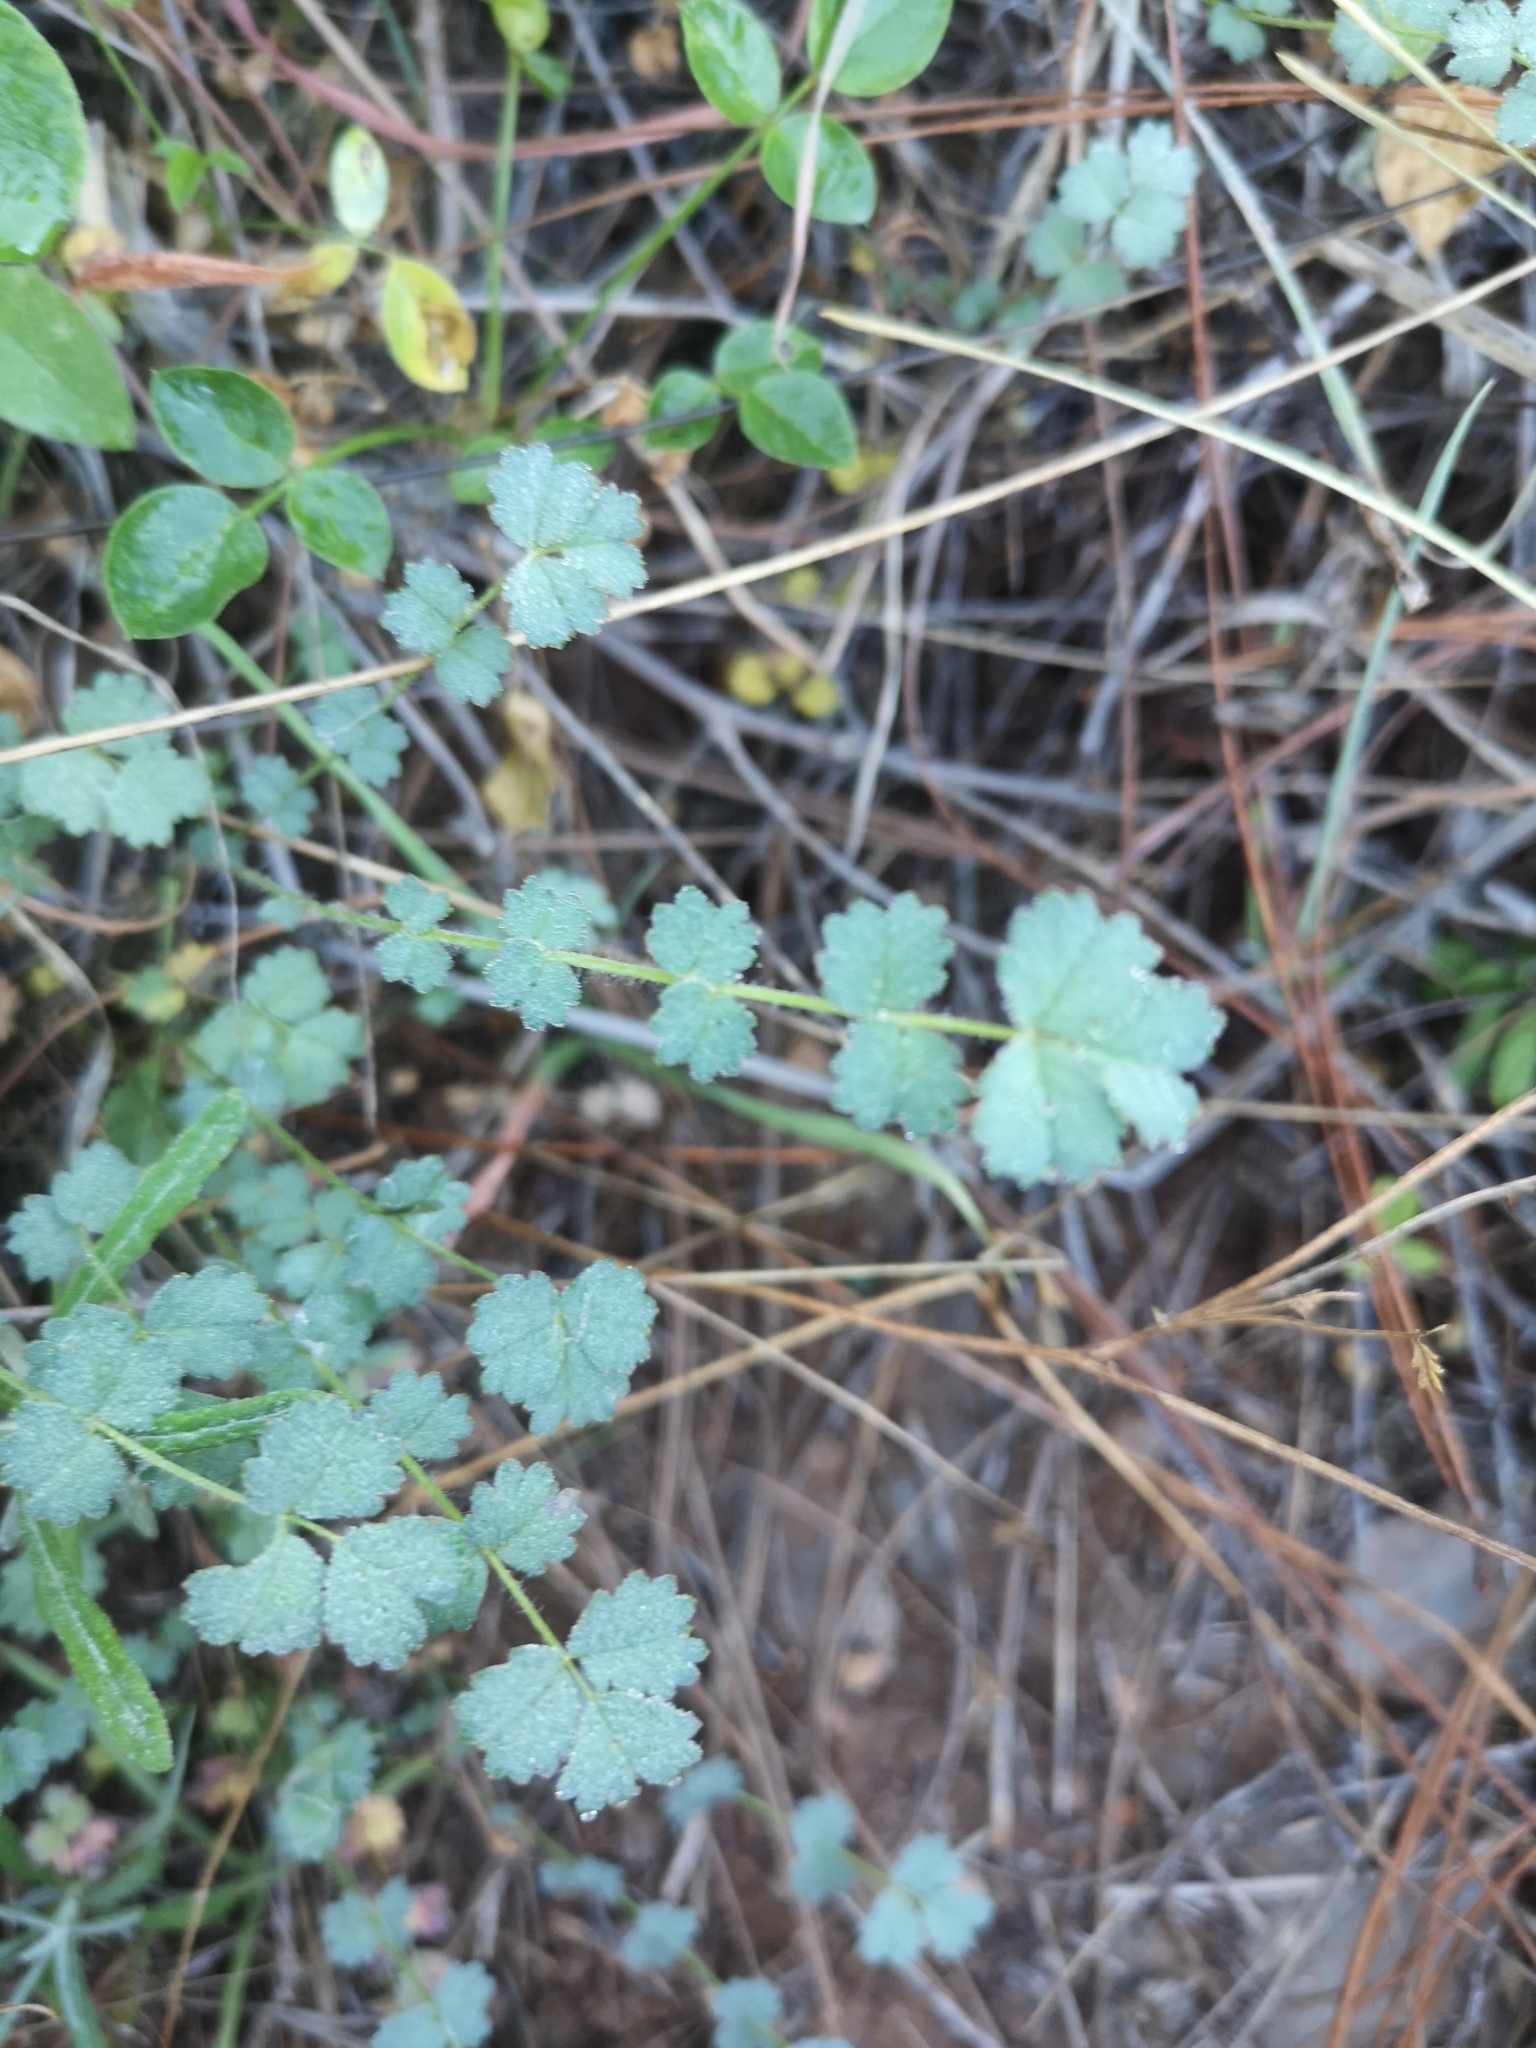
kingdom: Plantae
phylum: Tracheophyta
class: Magnoliopsida
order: Rosales
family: Rosaceae
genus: Poterium
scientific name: Poterium megacarpon
